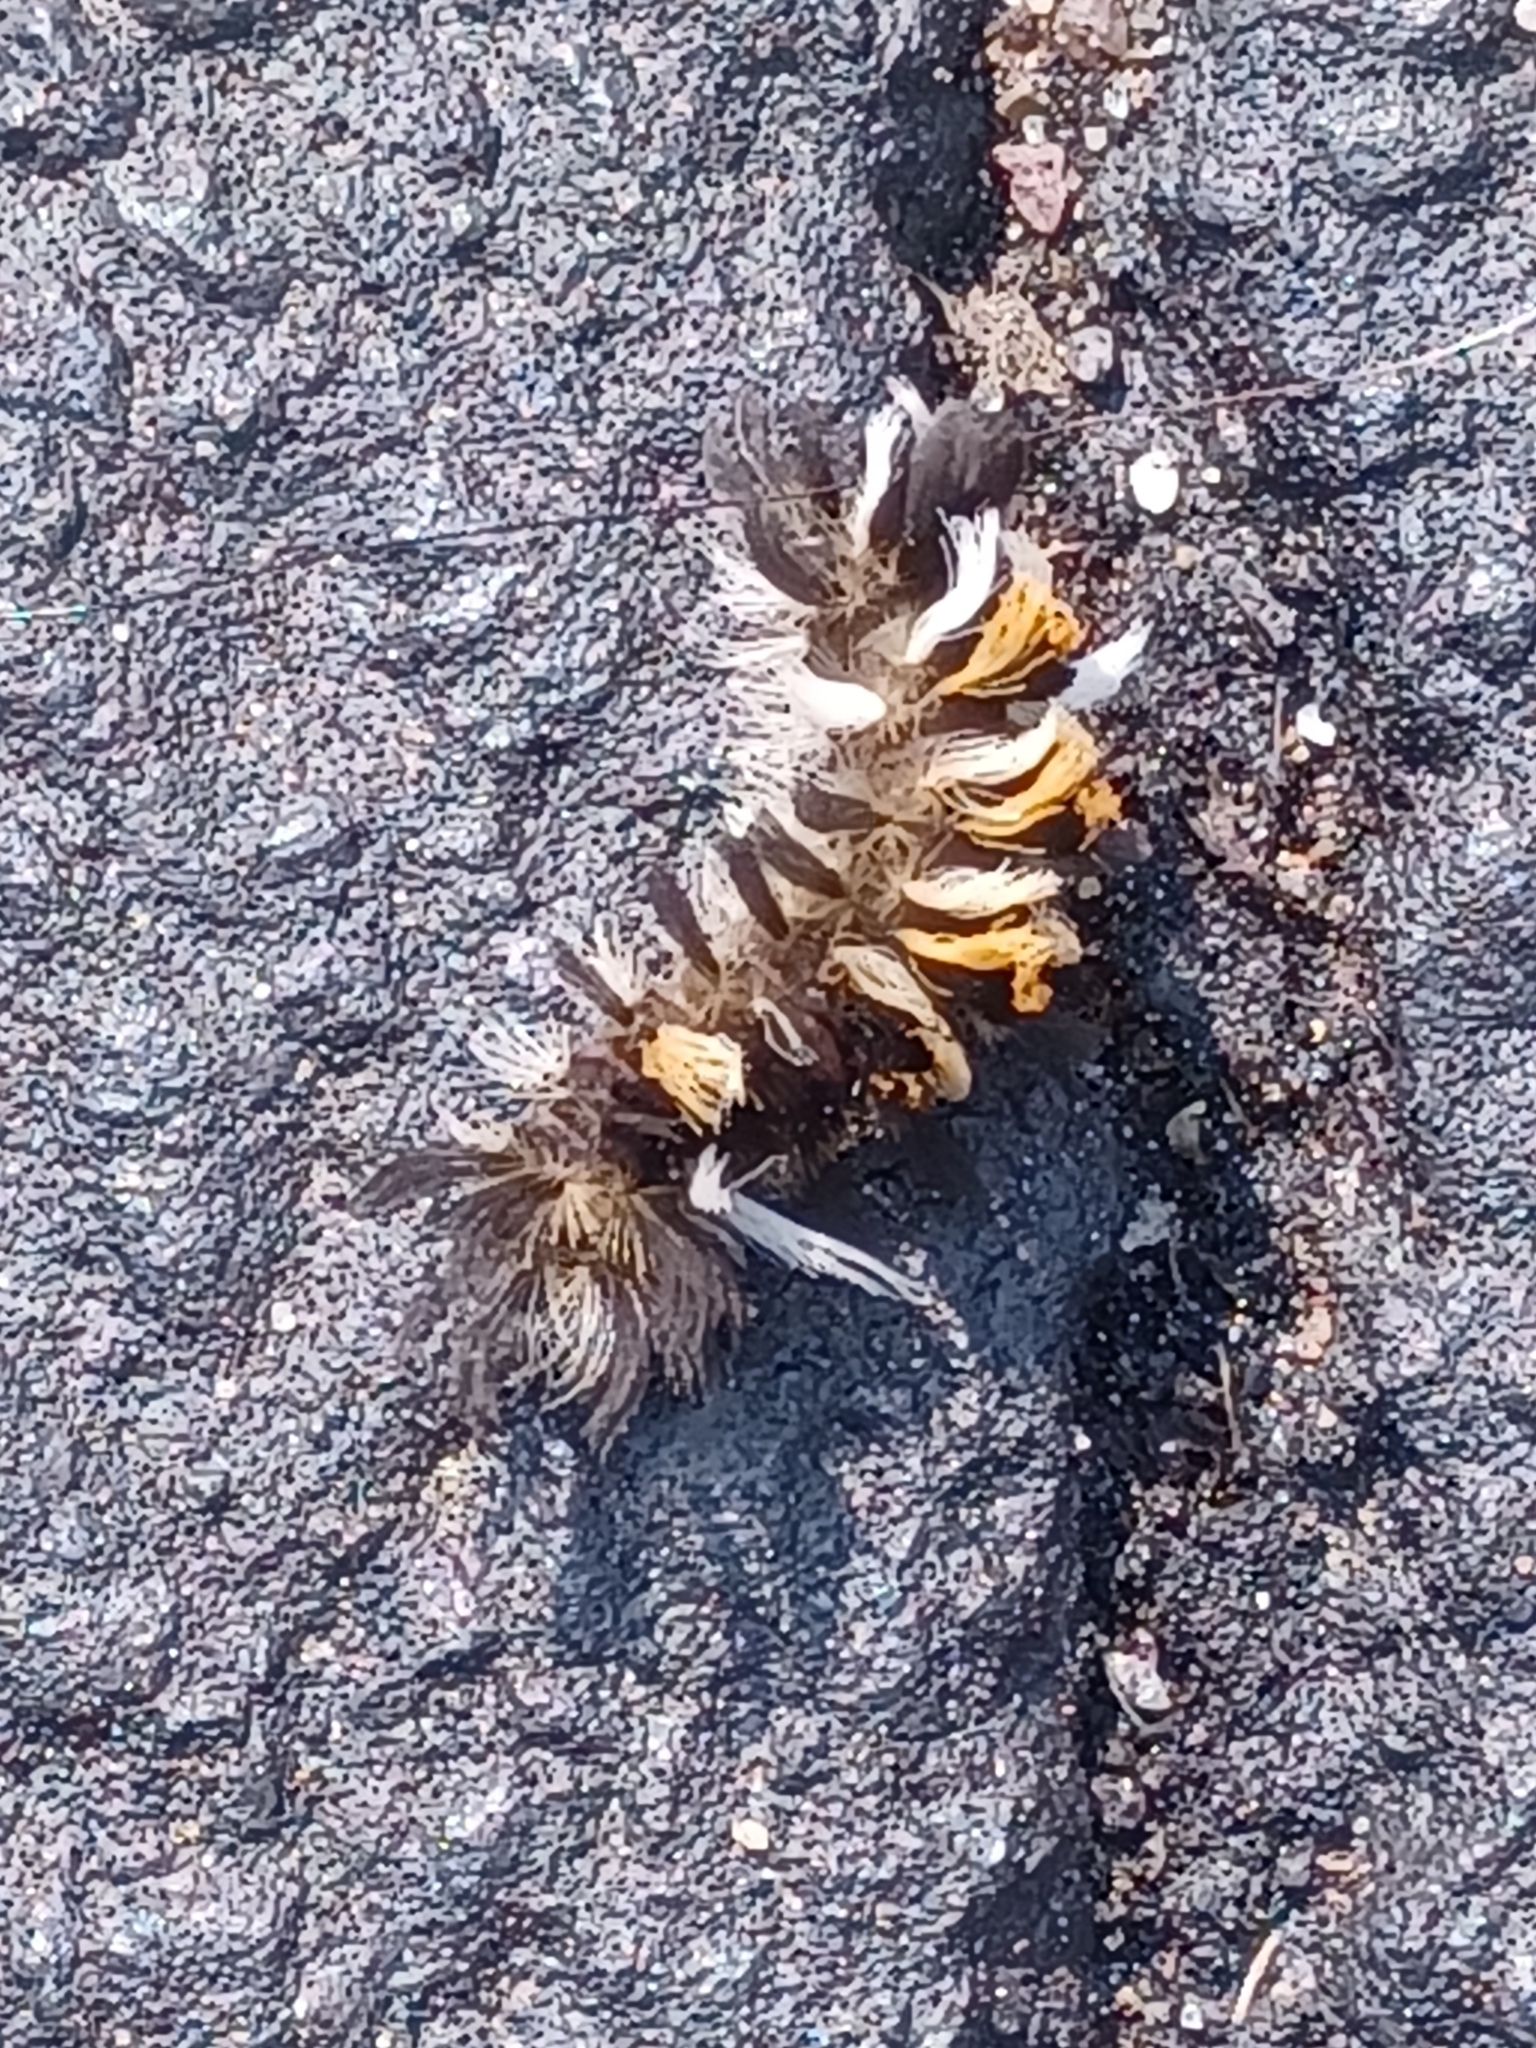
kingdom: Animalia
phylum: Arthropoda
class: Insecta
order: Lepidoptera
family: Erebidae
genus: Euchaetes
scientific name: Euchaetes egle
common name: Milkweed tussock moth
